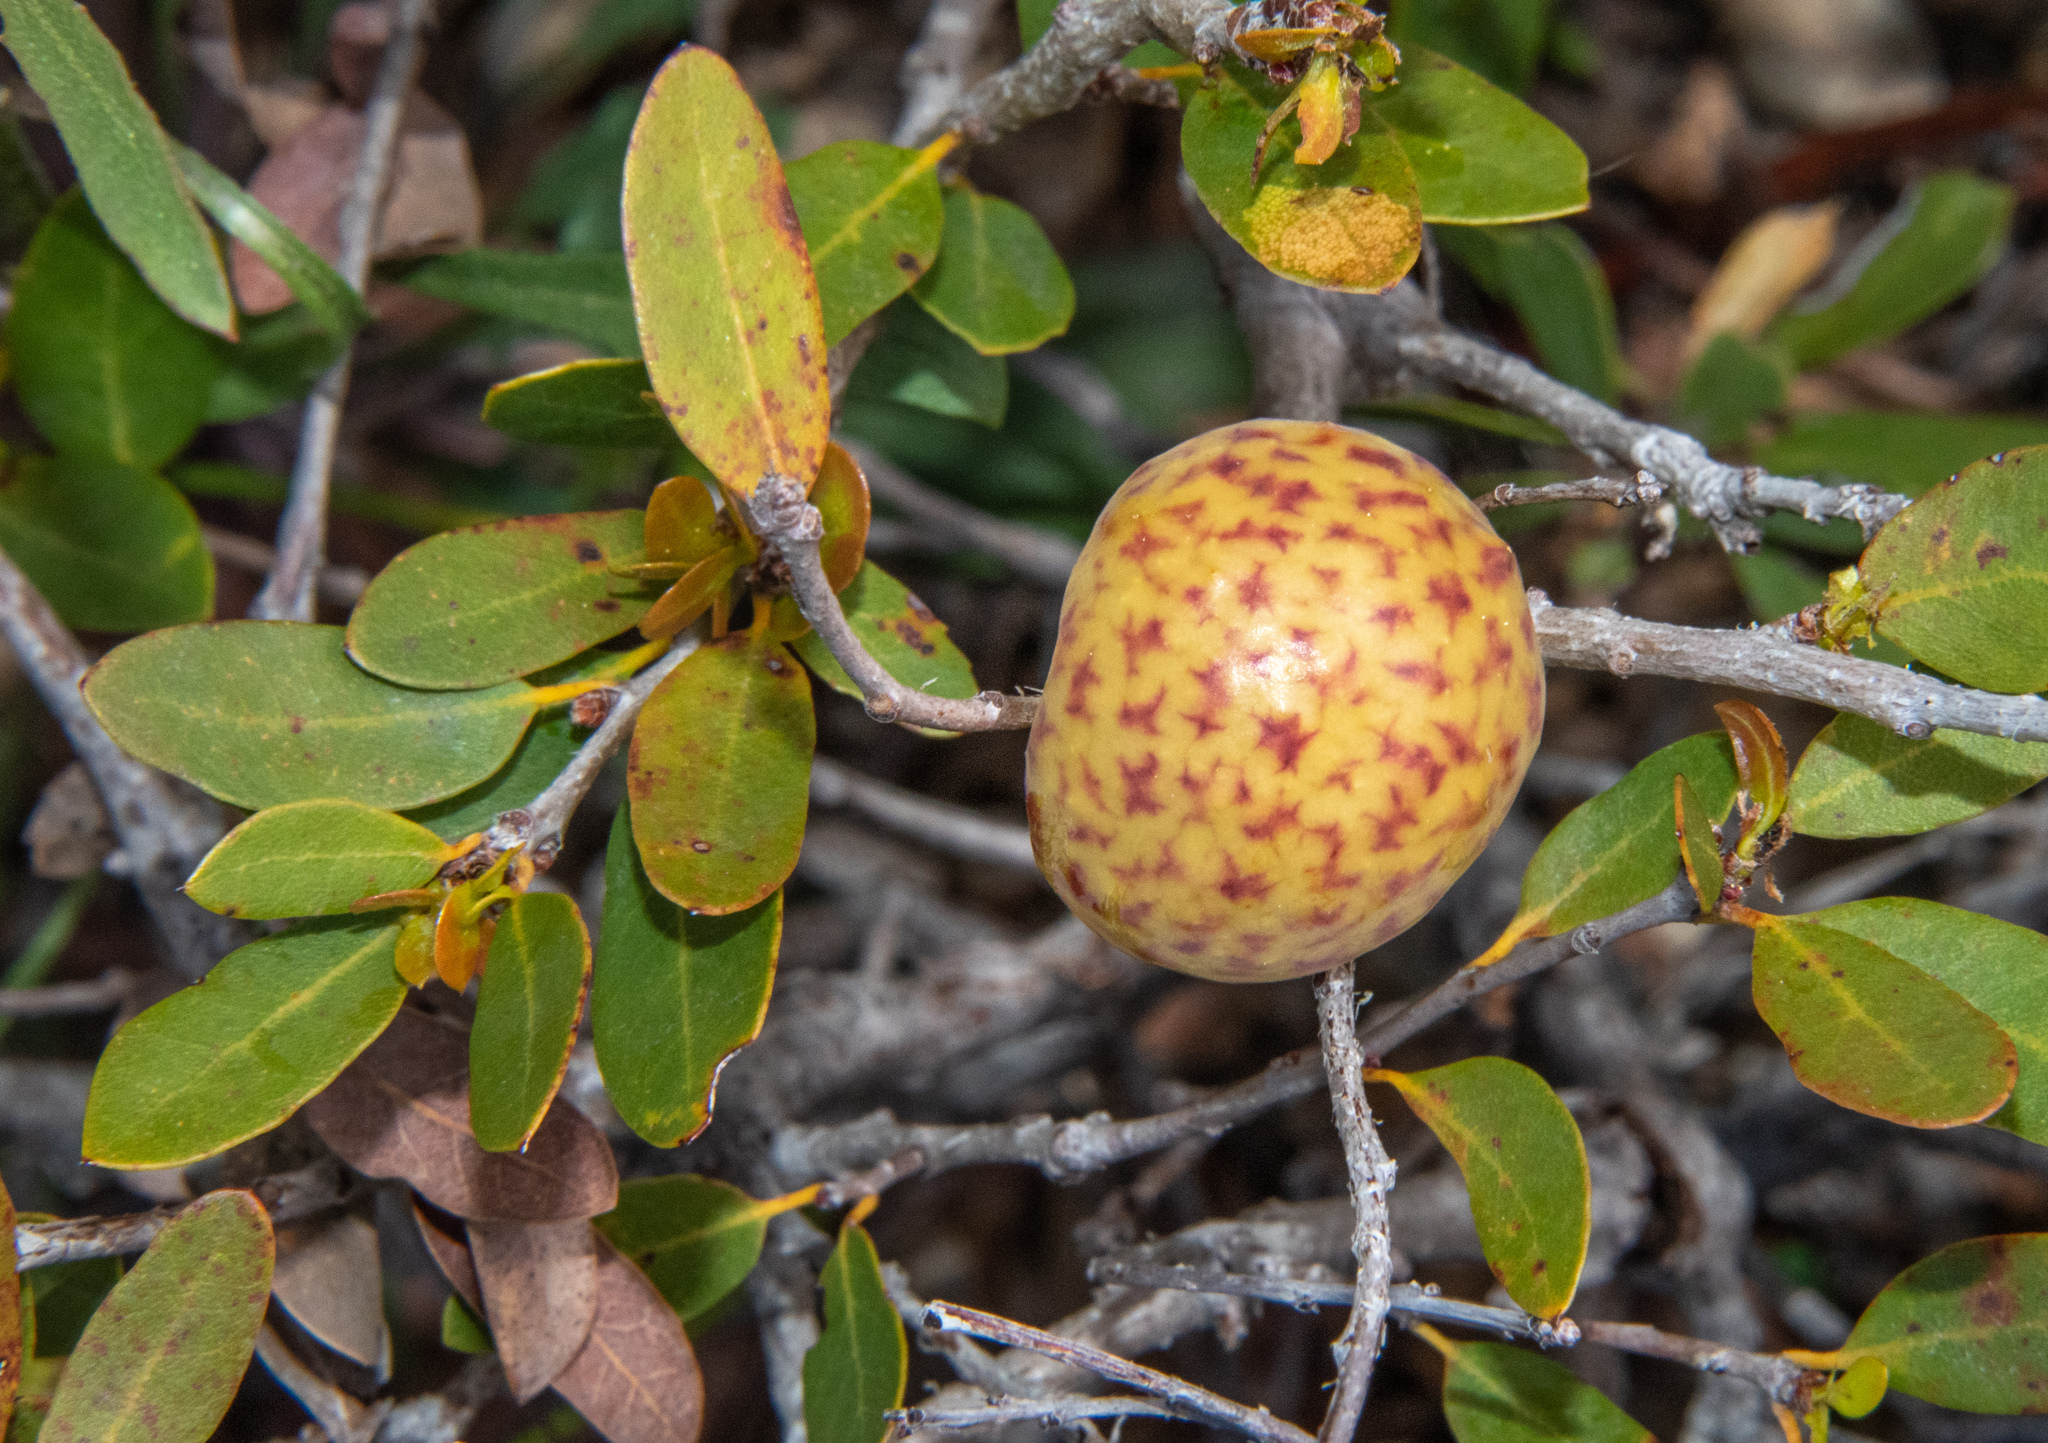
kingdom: Animalia
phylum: Arthropoda
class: Insecta
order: Hymenoptera
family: Cynipidae
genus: Andricus
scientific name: Andricus
